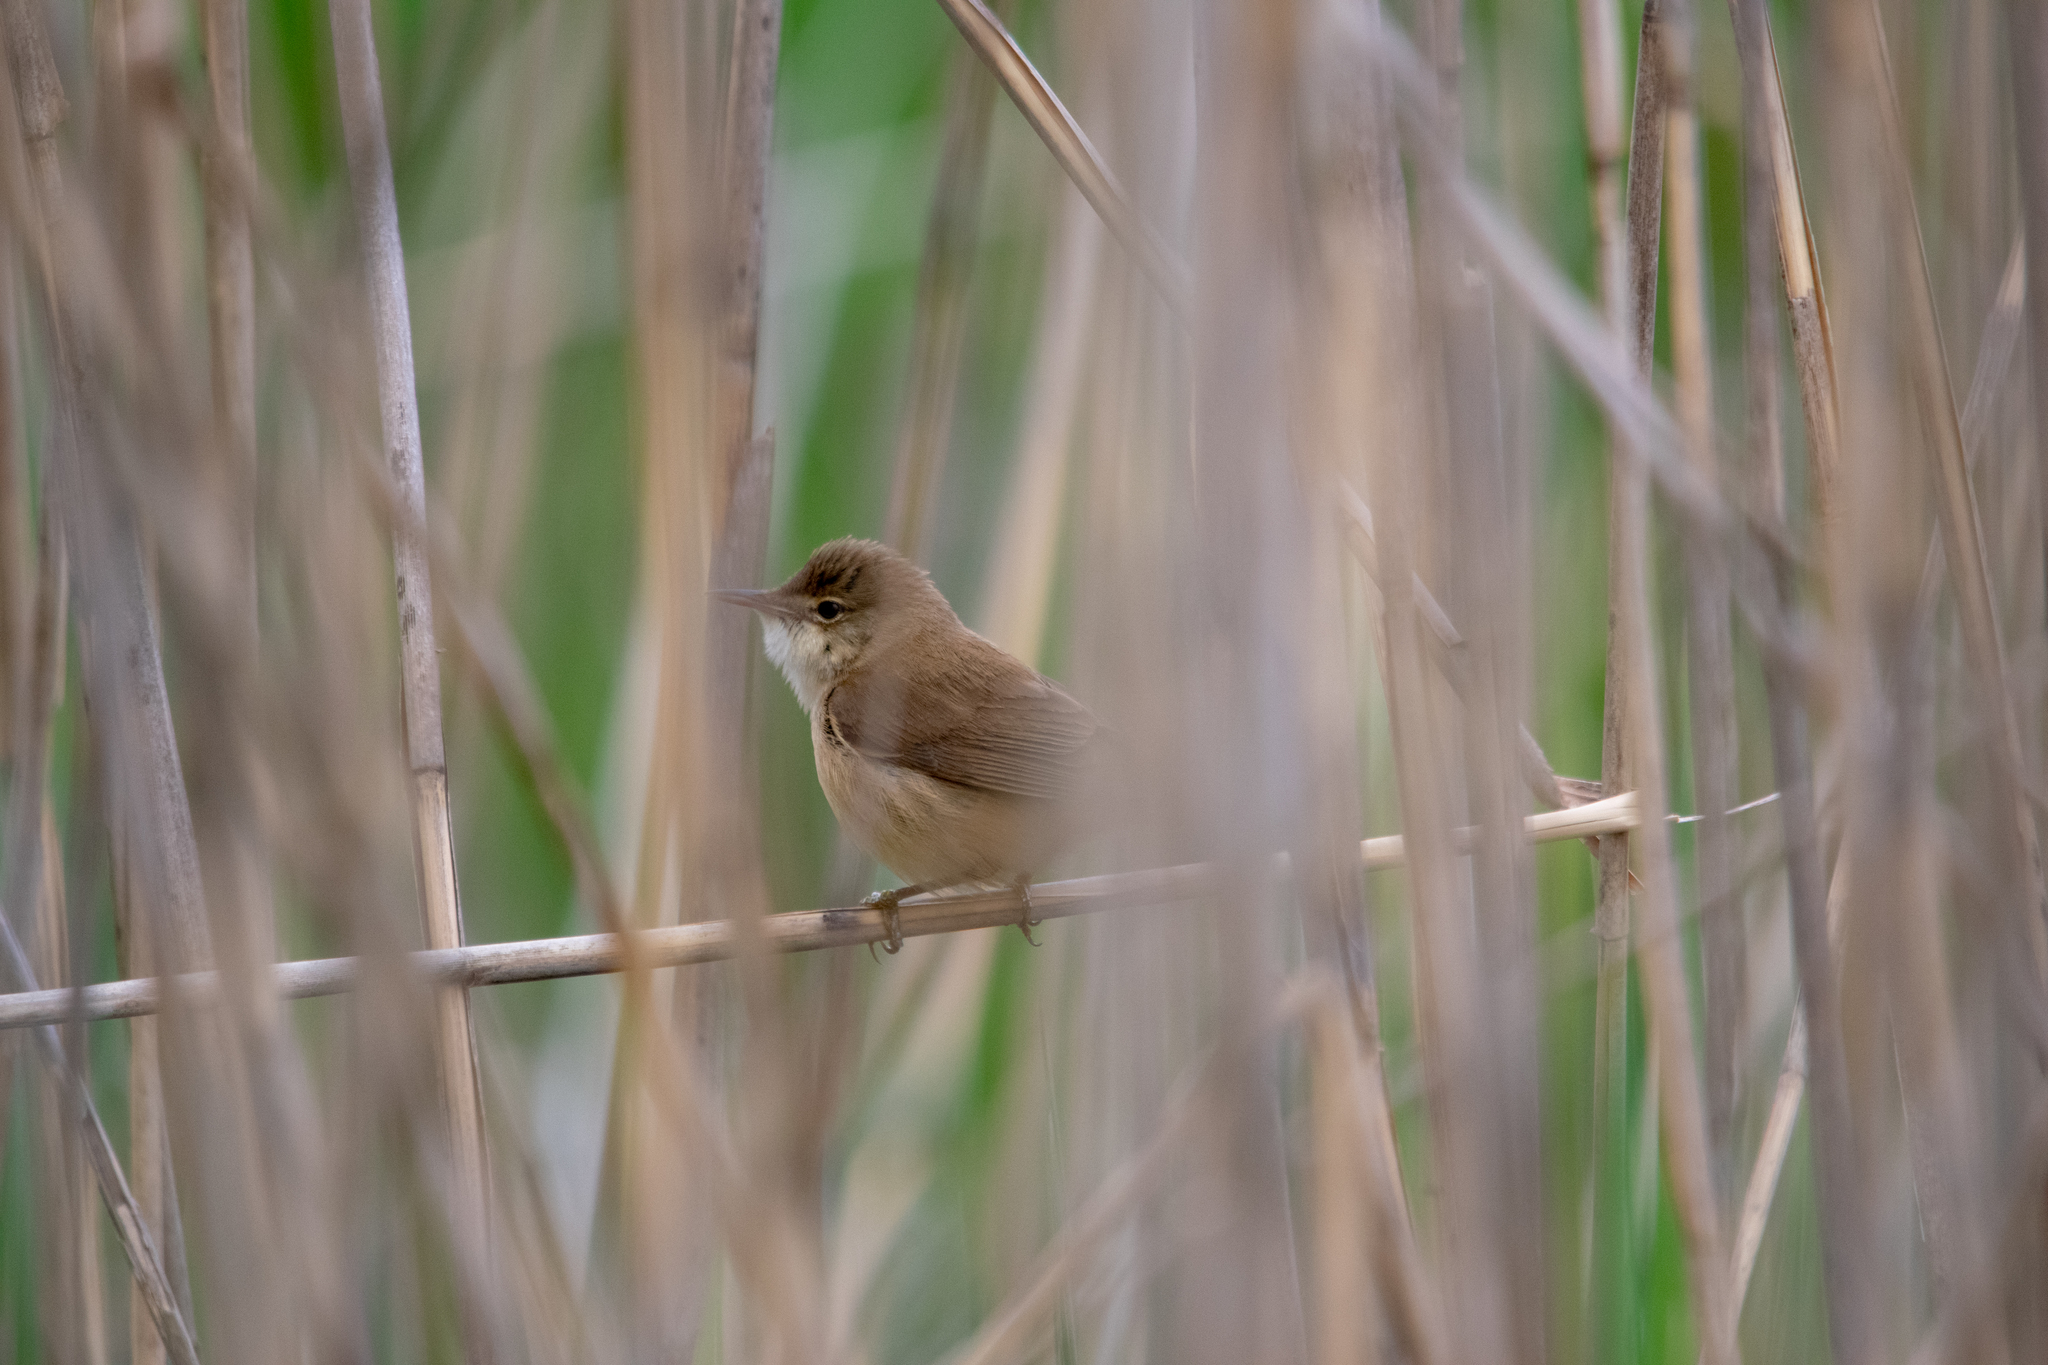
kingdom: Animalia
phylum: Chordata
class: Aves
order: Passeriformes
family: Acrocephalidae
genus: Acrocephalus
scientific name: Acrocephalus scirpaceus
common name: Eurasian reed warbler
